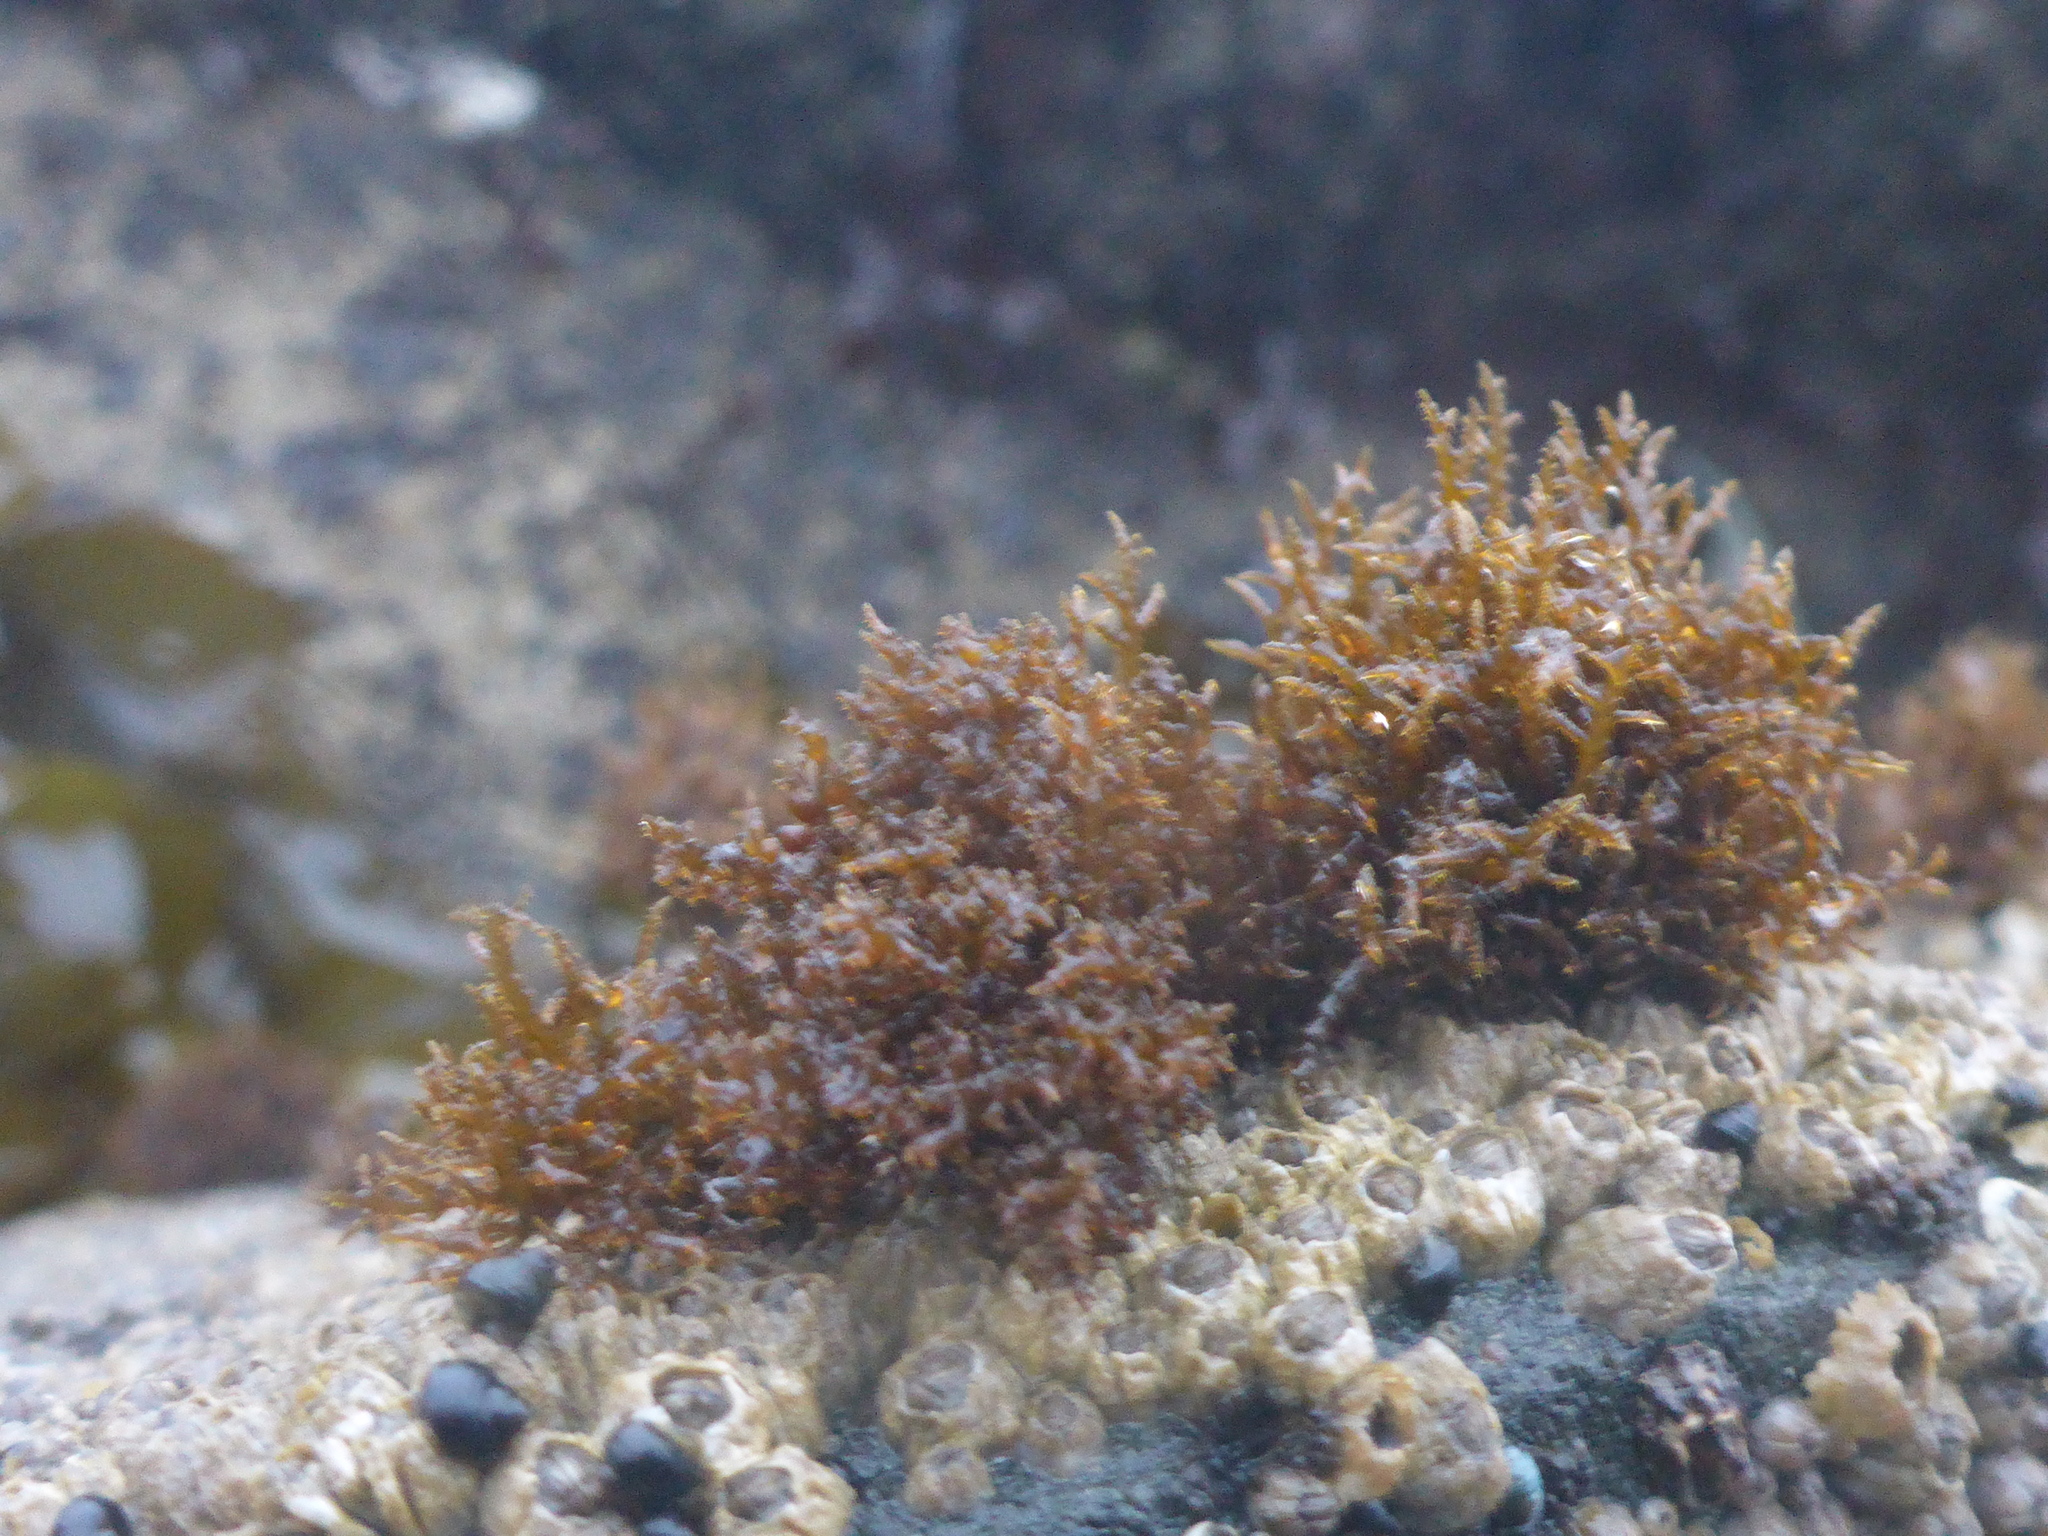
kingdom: Plantae
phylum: Rhodophyta
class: Florideophyceae
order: Gigartinales
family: Endocladiaceae
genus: Endocladia
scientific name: Endocladia muricata
